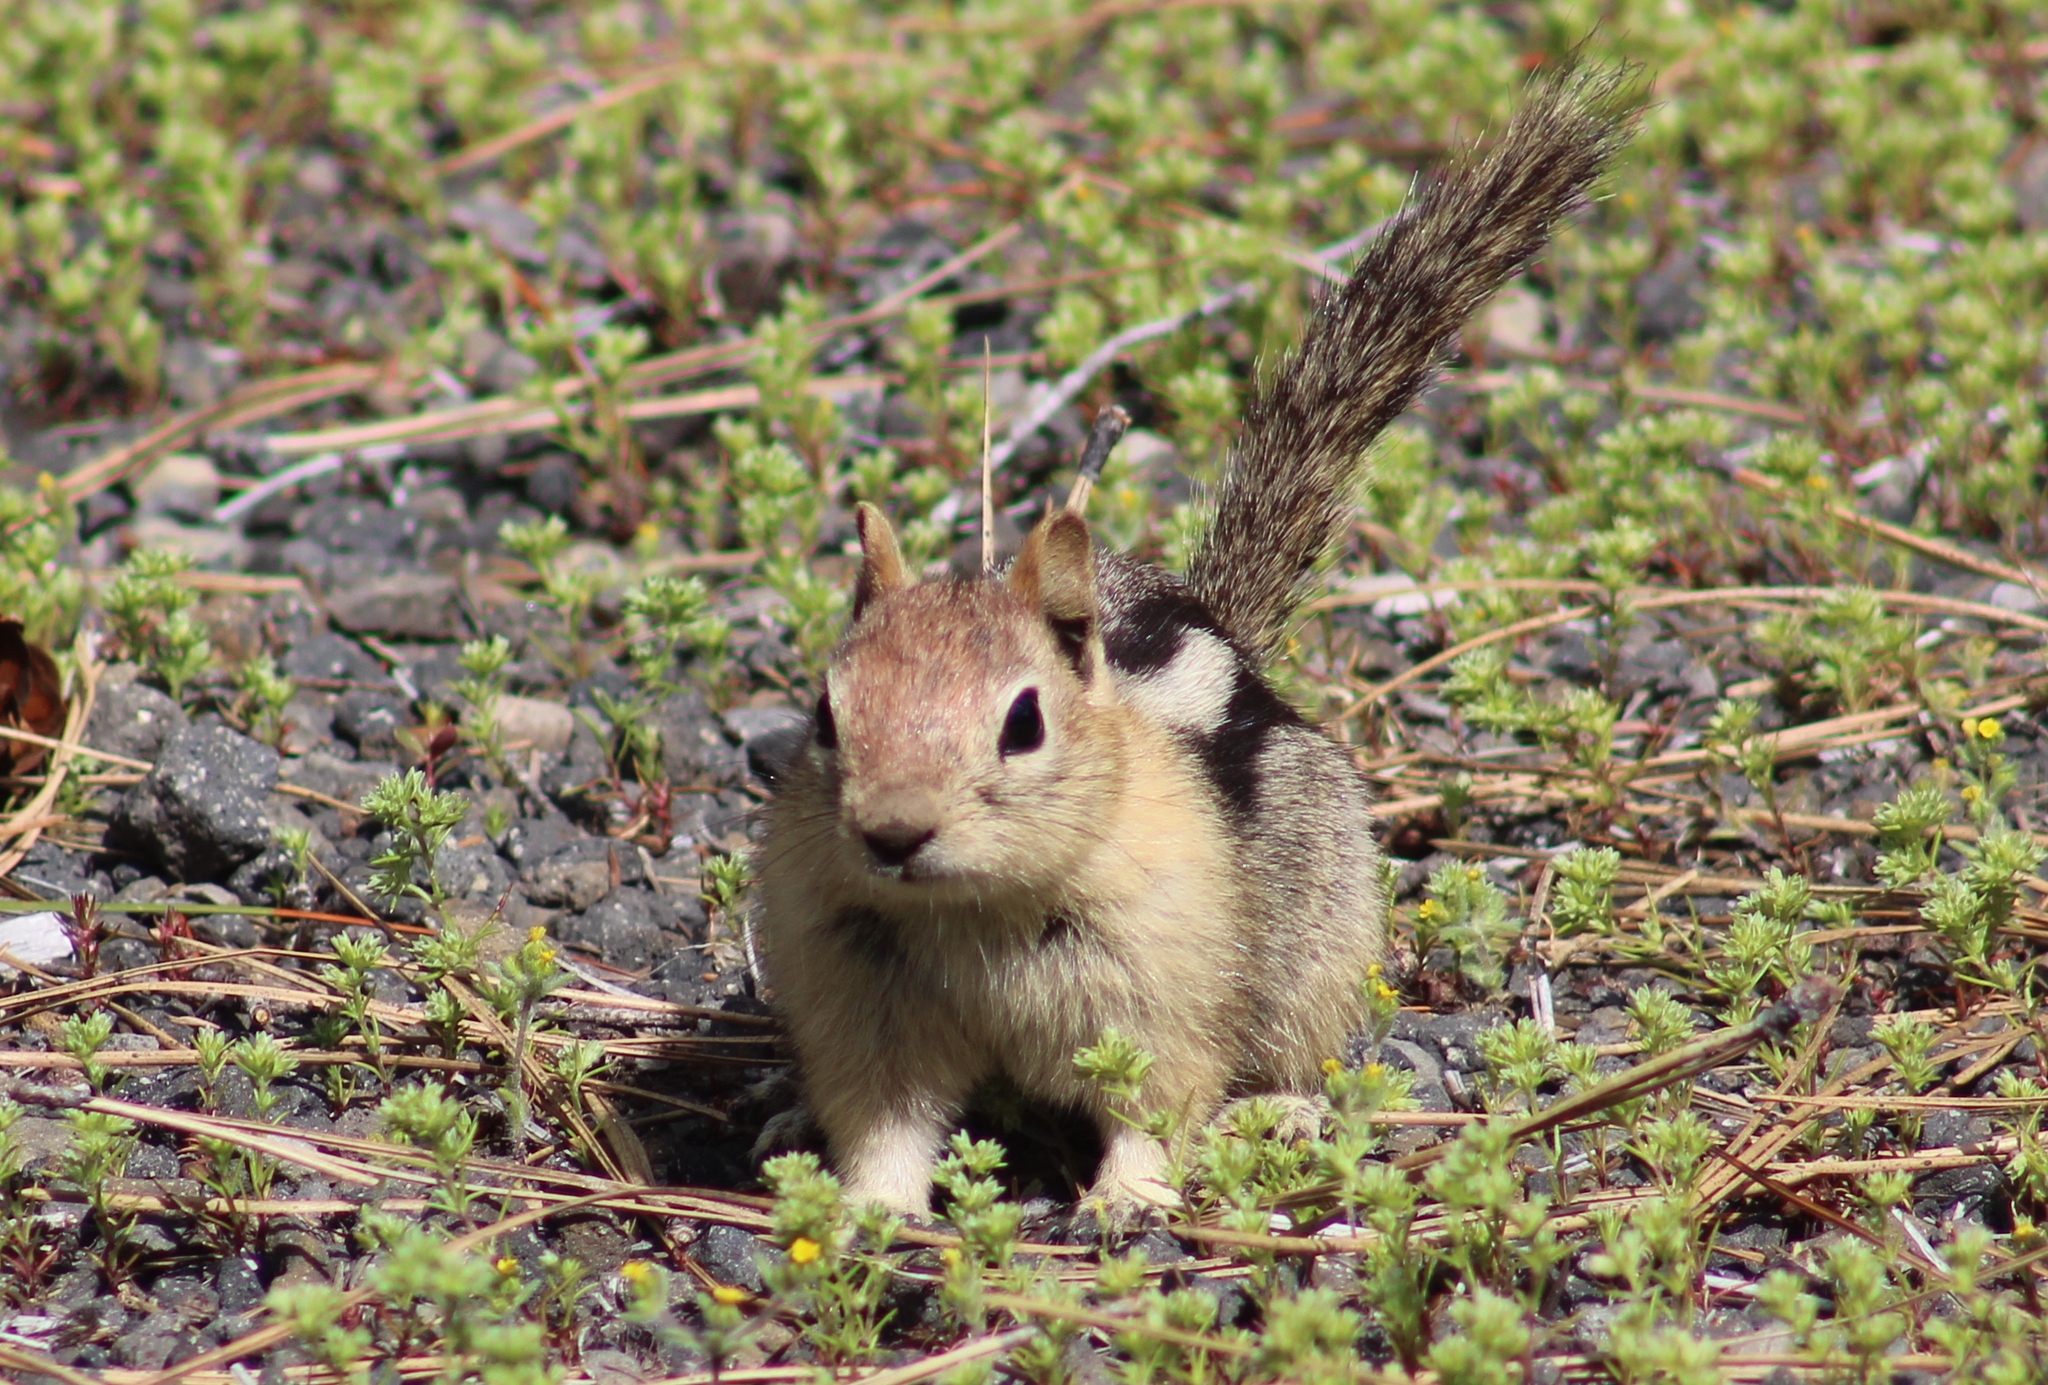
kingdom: Animalia
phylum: Chordata
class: Mammalia
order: Rodentia
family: Sciuridae
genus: Callospermophilus
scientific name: Callospermophilus lateralis
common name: Golden-mantled ground squirrel
